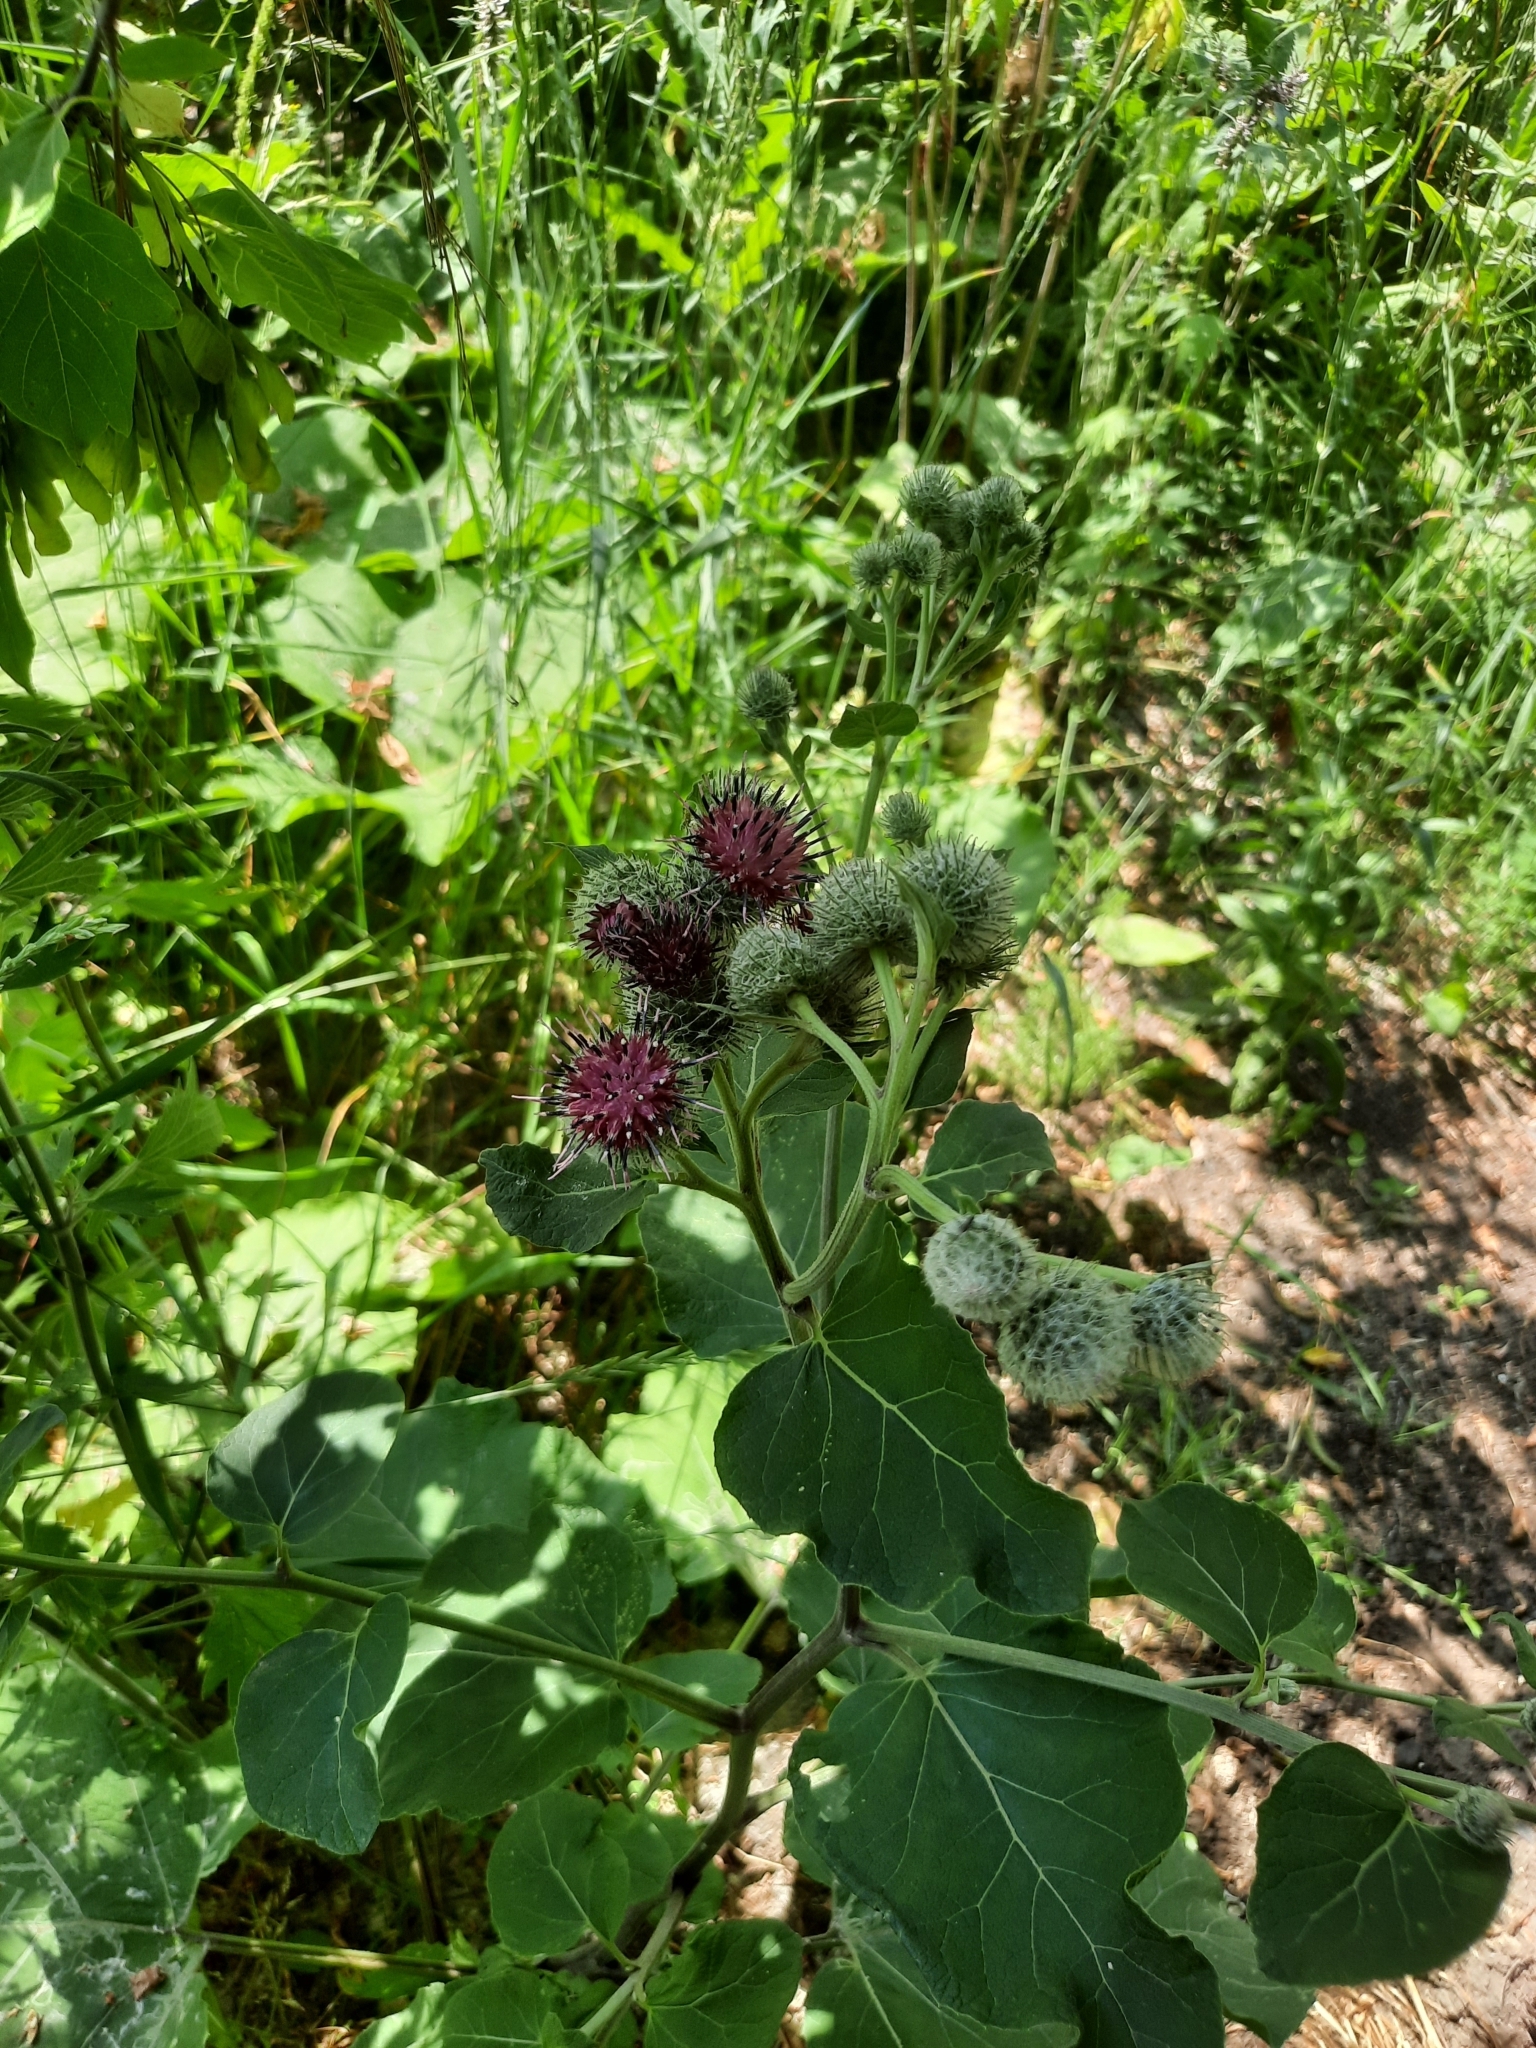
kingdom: Plantae
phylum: Tracheophyta
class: Magnoliopsida
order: Asterales
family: Asteraceae
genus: Arctium
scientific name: Arctium tomentosum
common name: Woolly burdock
